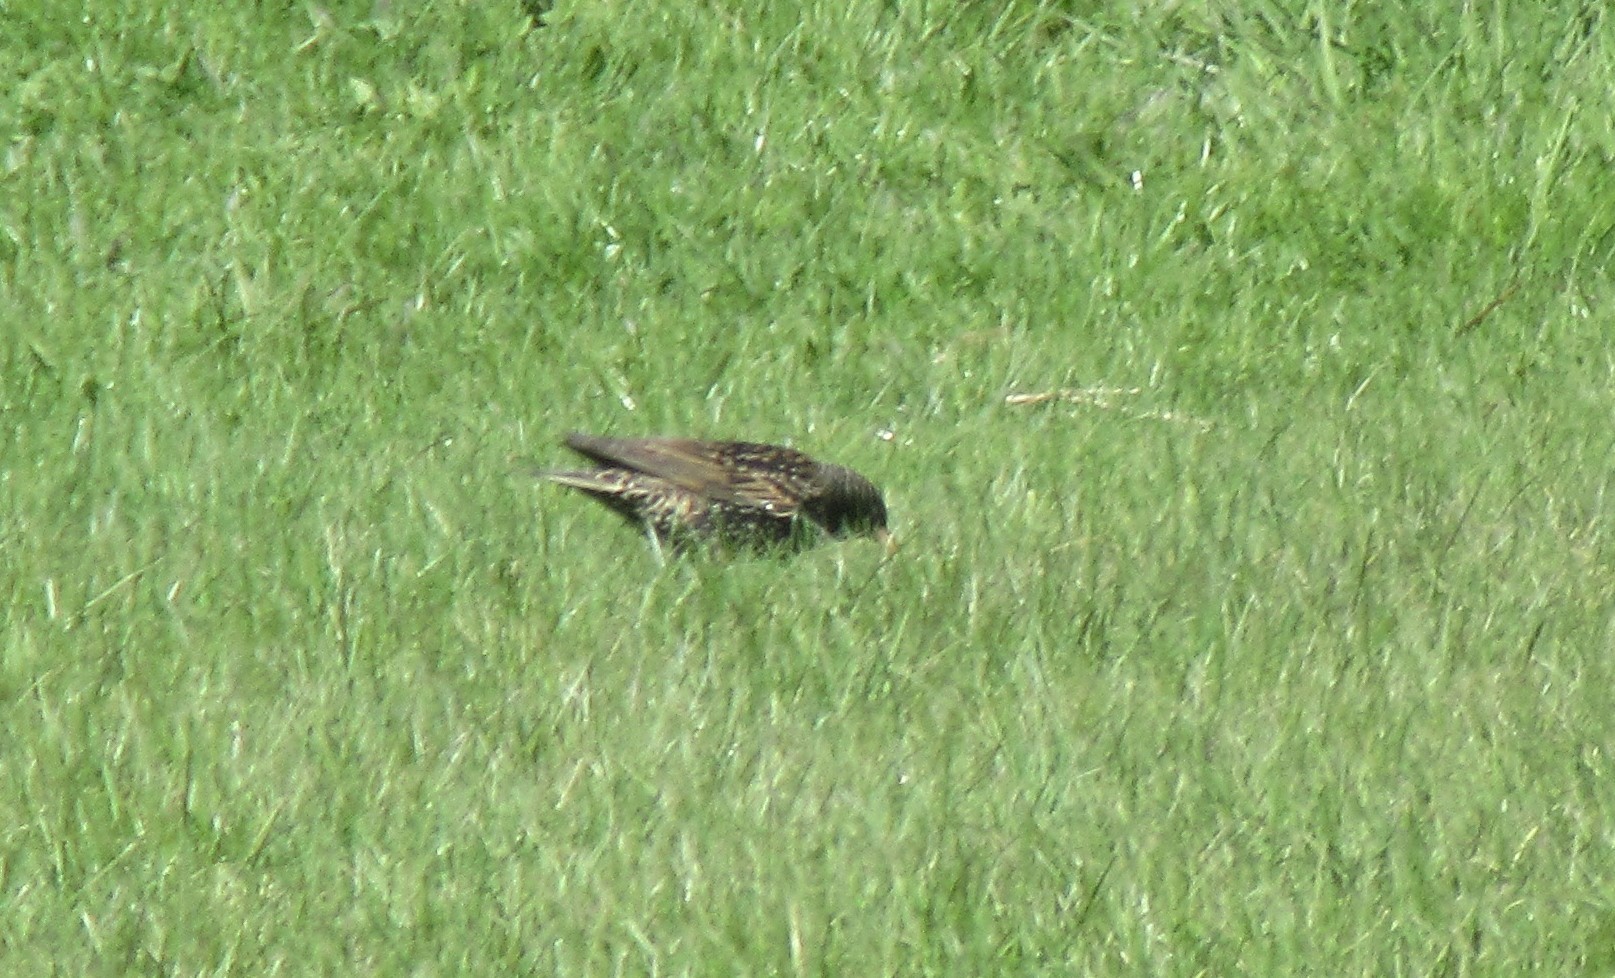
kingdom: Animalia
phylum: Chordata
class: Aves
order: Passeriformes
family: Sturnidae
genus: Sturnus
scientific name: Sturnus vulgaris
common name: Common starling
